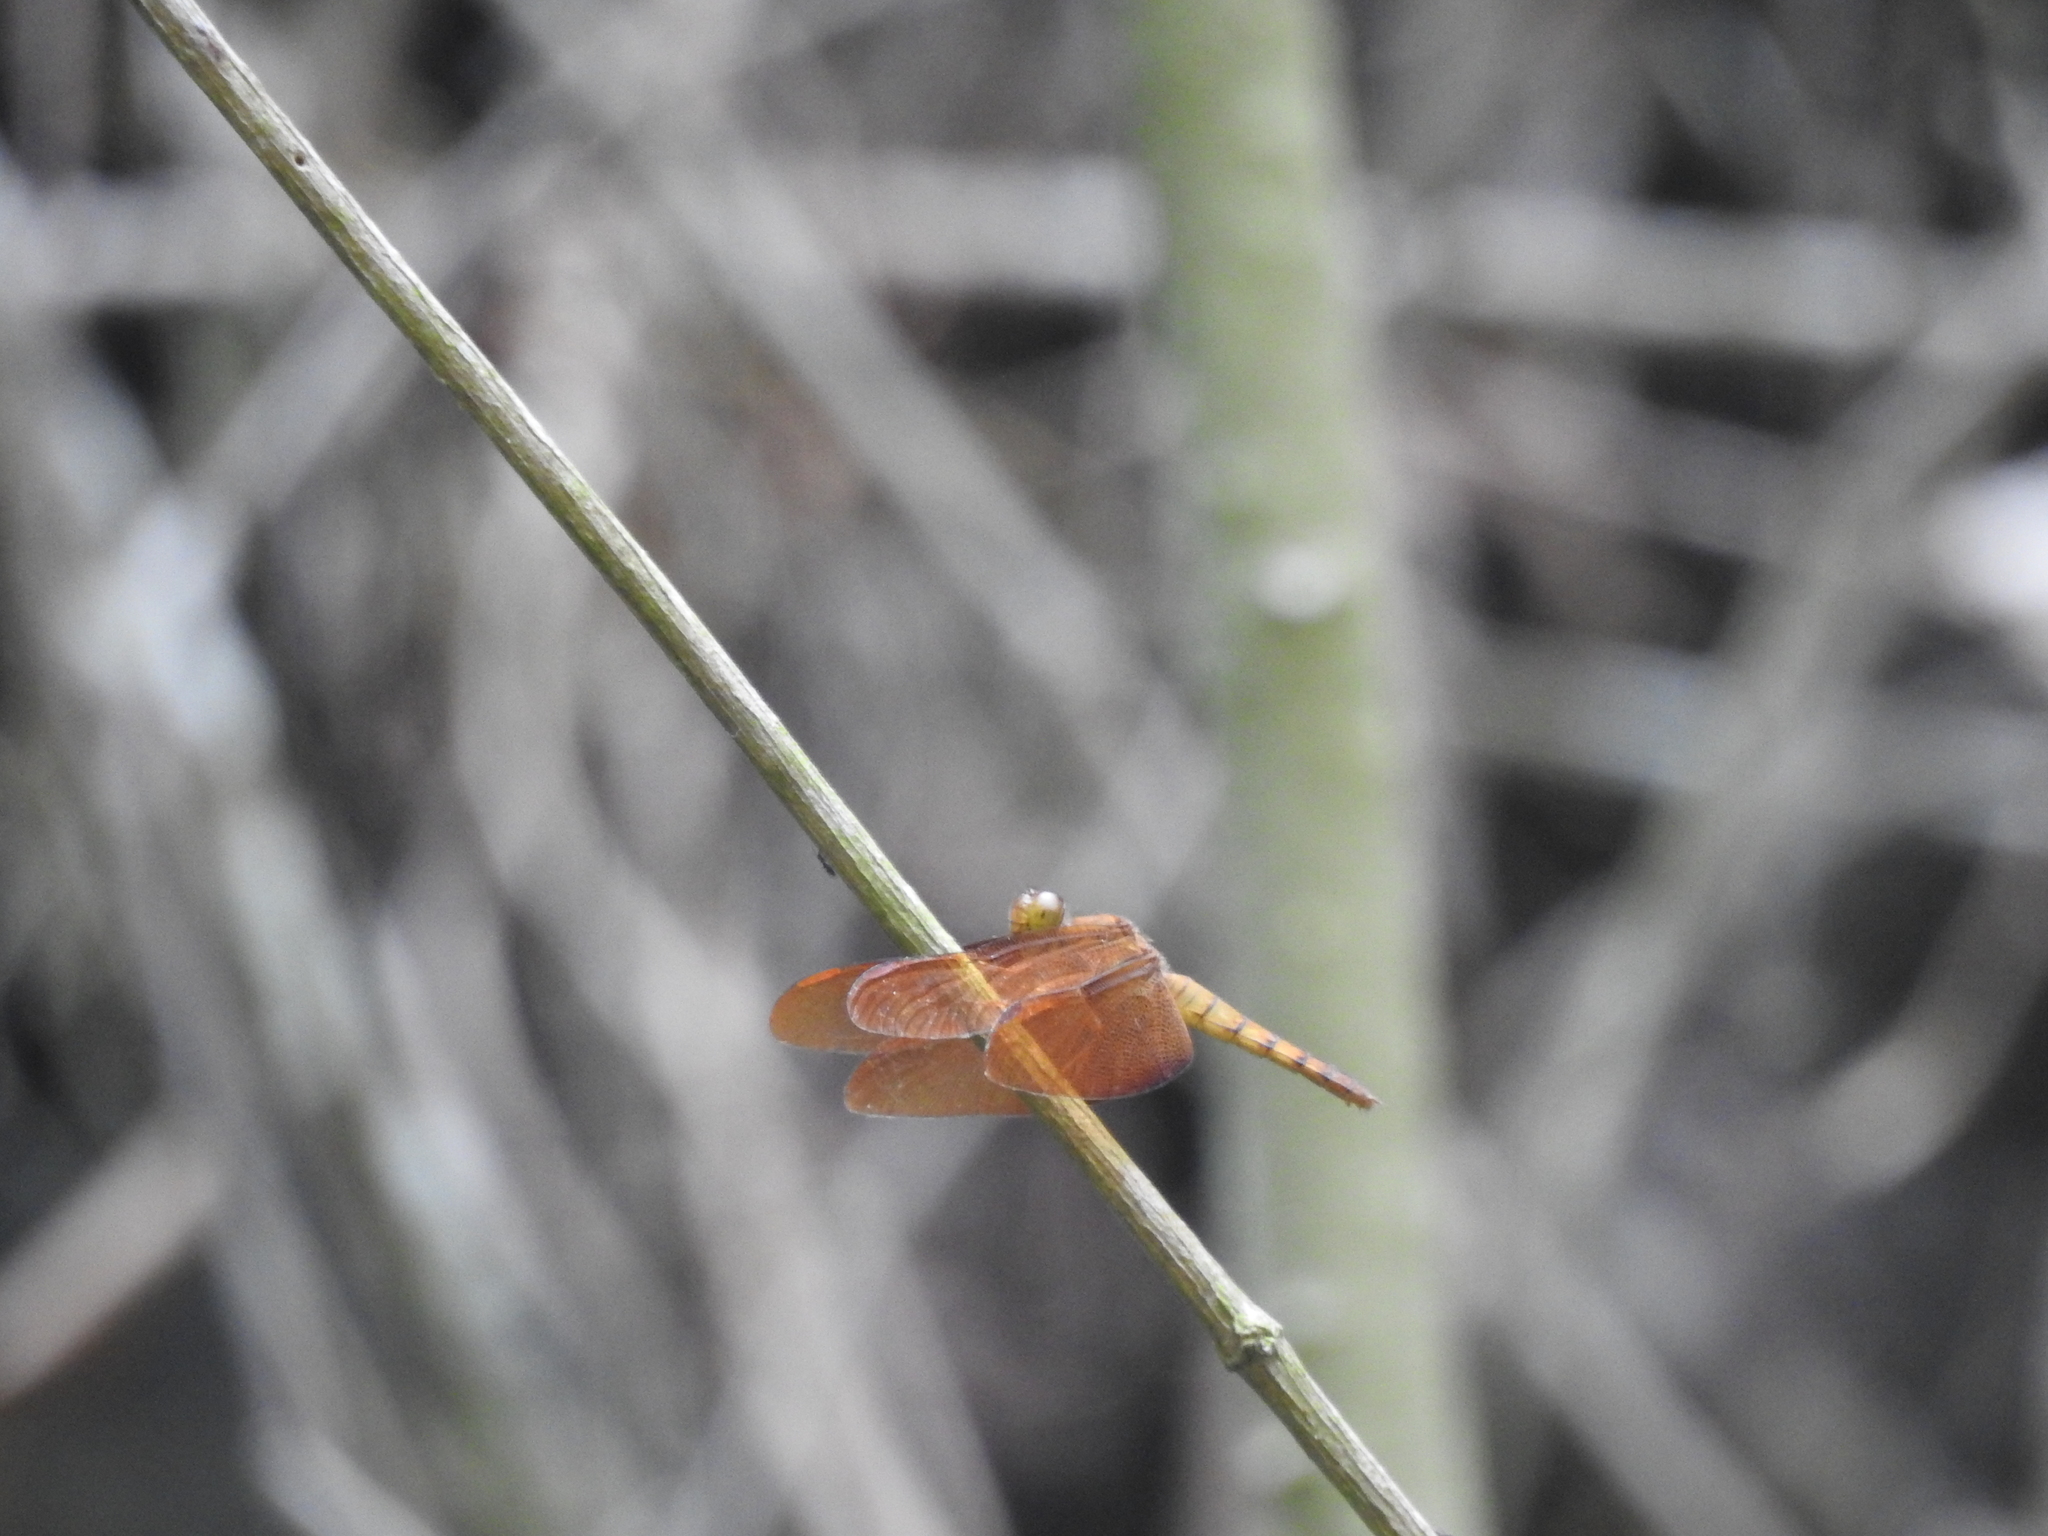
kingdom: Animalia
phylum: Arthropoda
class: Insecta
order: Odonata
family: Libellulidae
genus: Neurothemis
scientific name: Neurothemis fulvia
